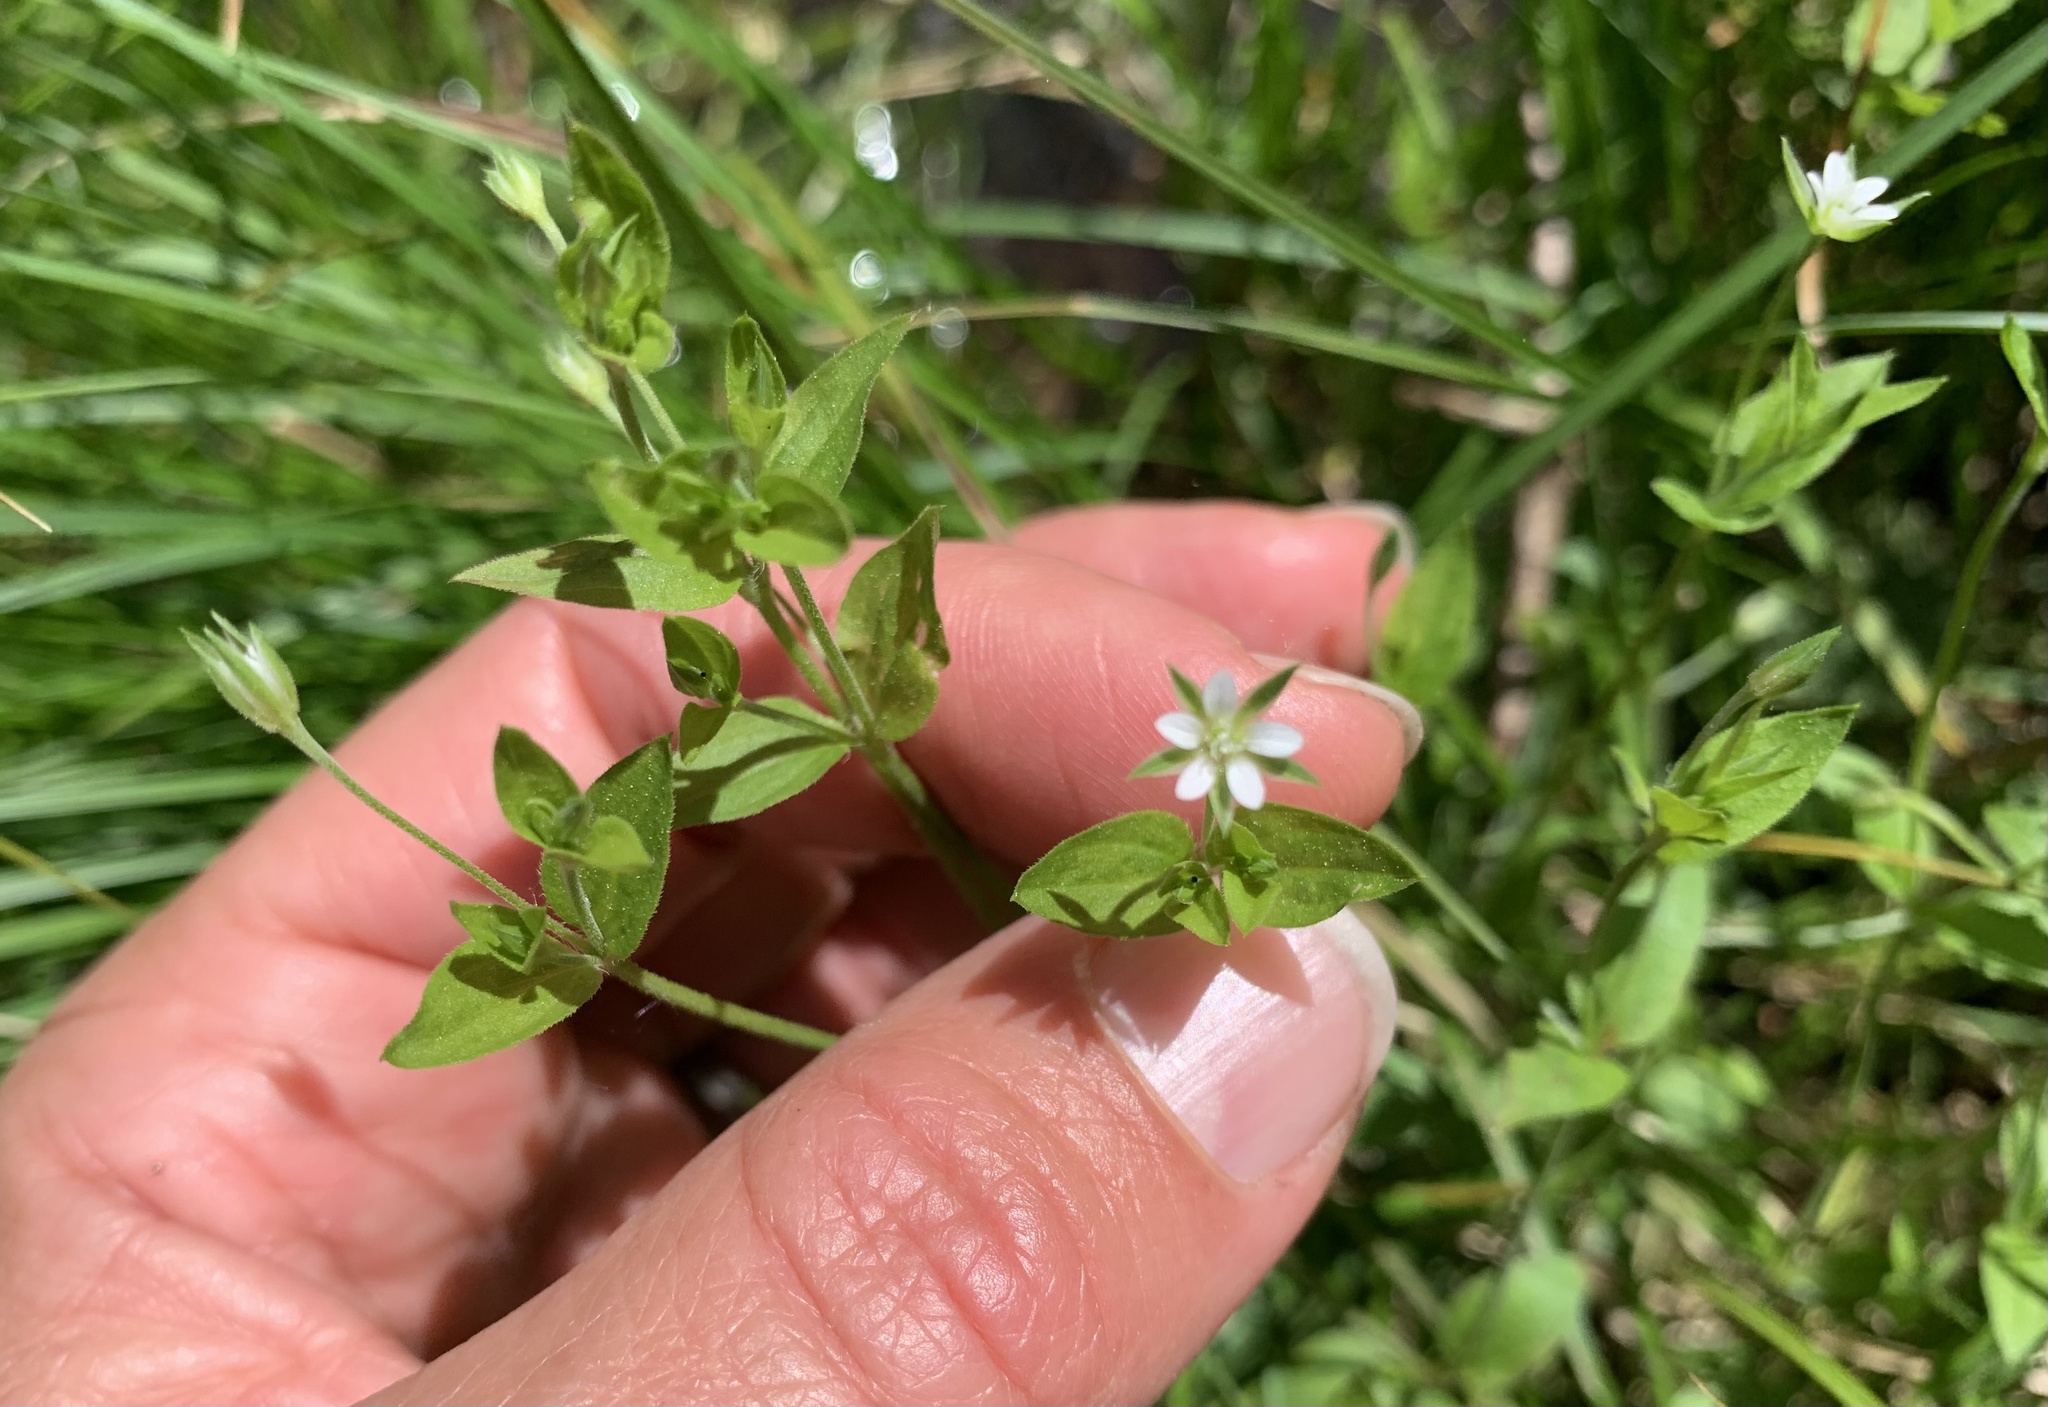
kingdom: Plantae
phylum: Tracheophyta
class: Magnoliopsida
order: Caryophyllales
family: Caryophyllaceae
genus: Moehringia
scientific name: Moehringia trinervia
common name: Three-nerved sandwort
